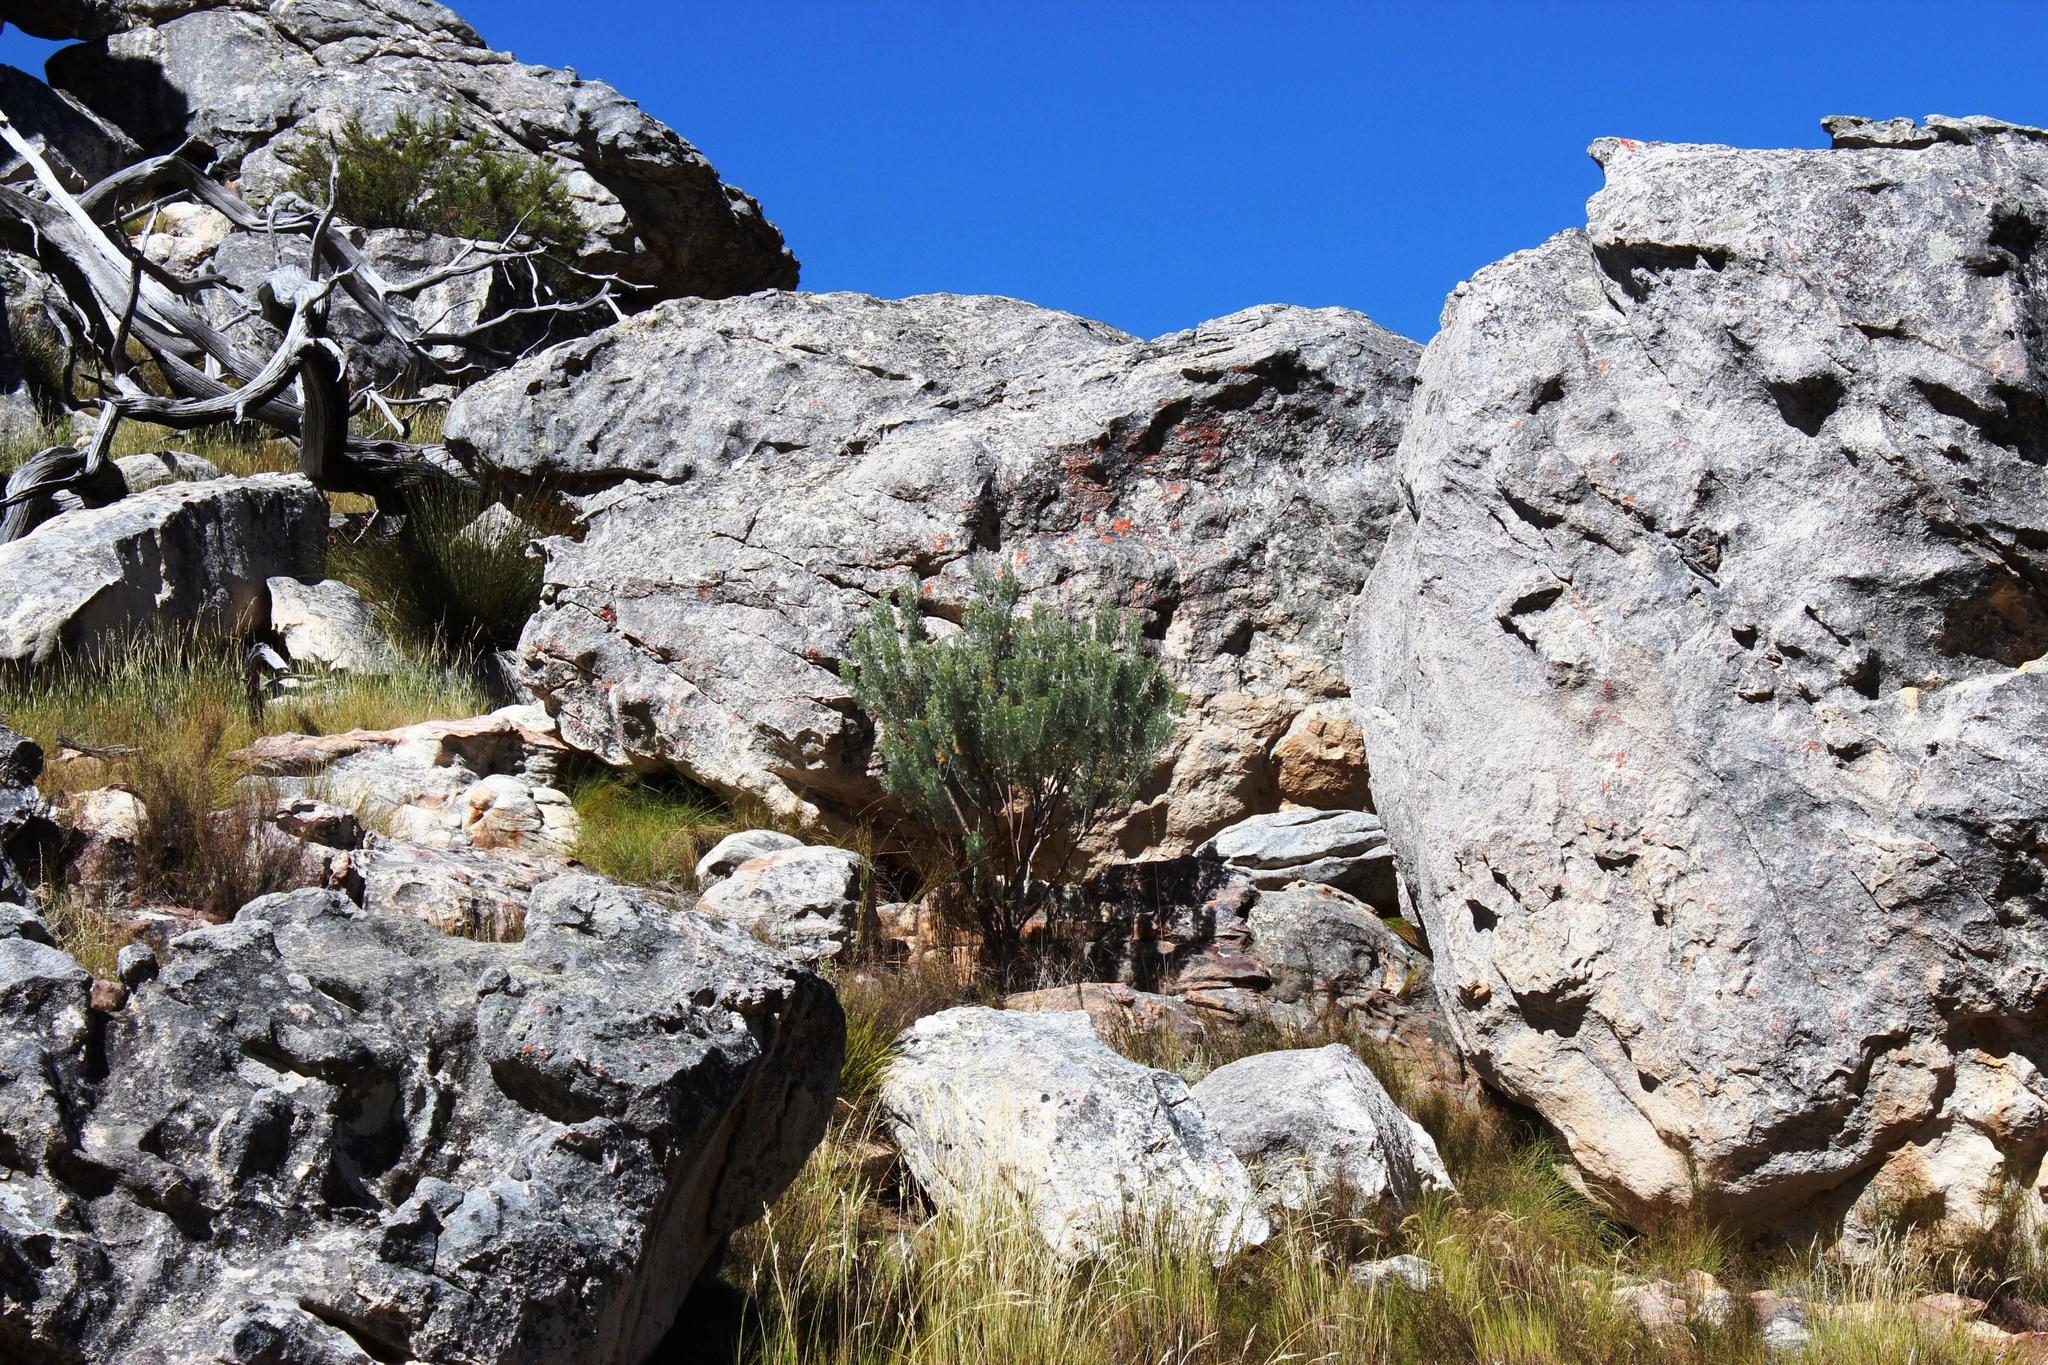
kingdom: Plantae
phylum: Tracheophyta
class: Magnoliopsida
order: Proteales
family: Proteaceae
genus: Paranomus
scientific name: Paranomus tomentosus
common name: Hairy-leaf tree sceptre
